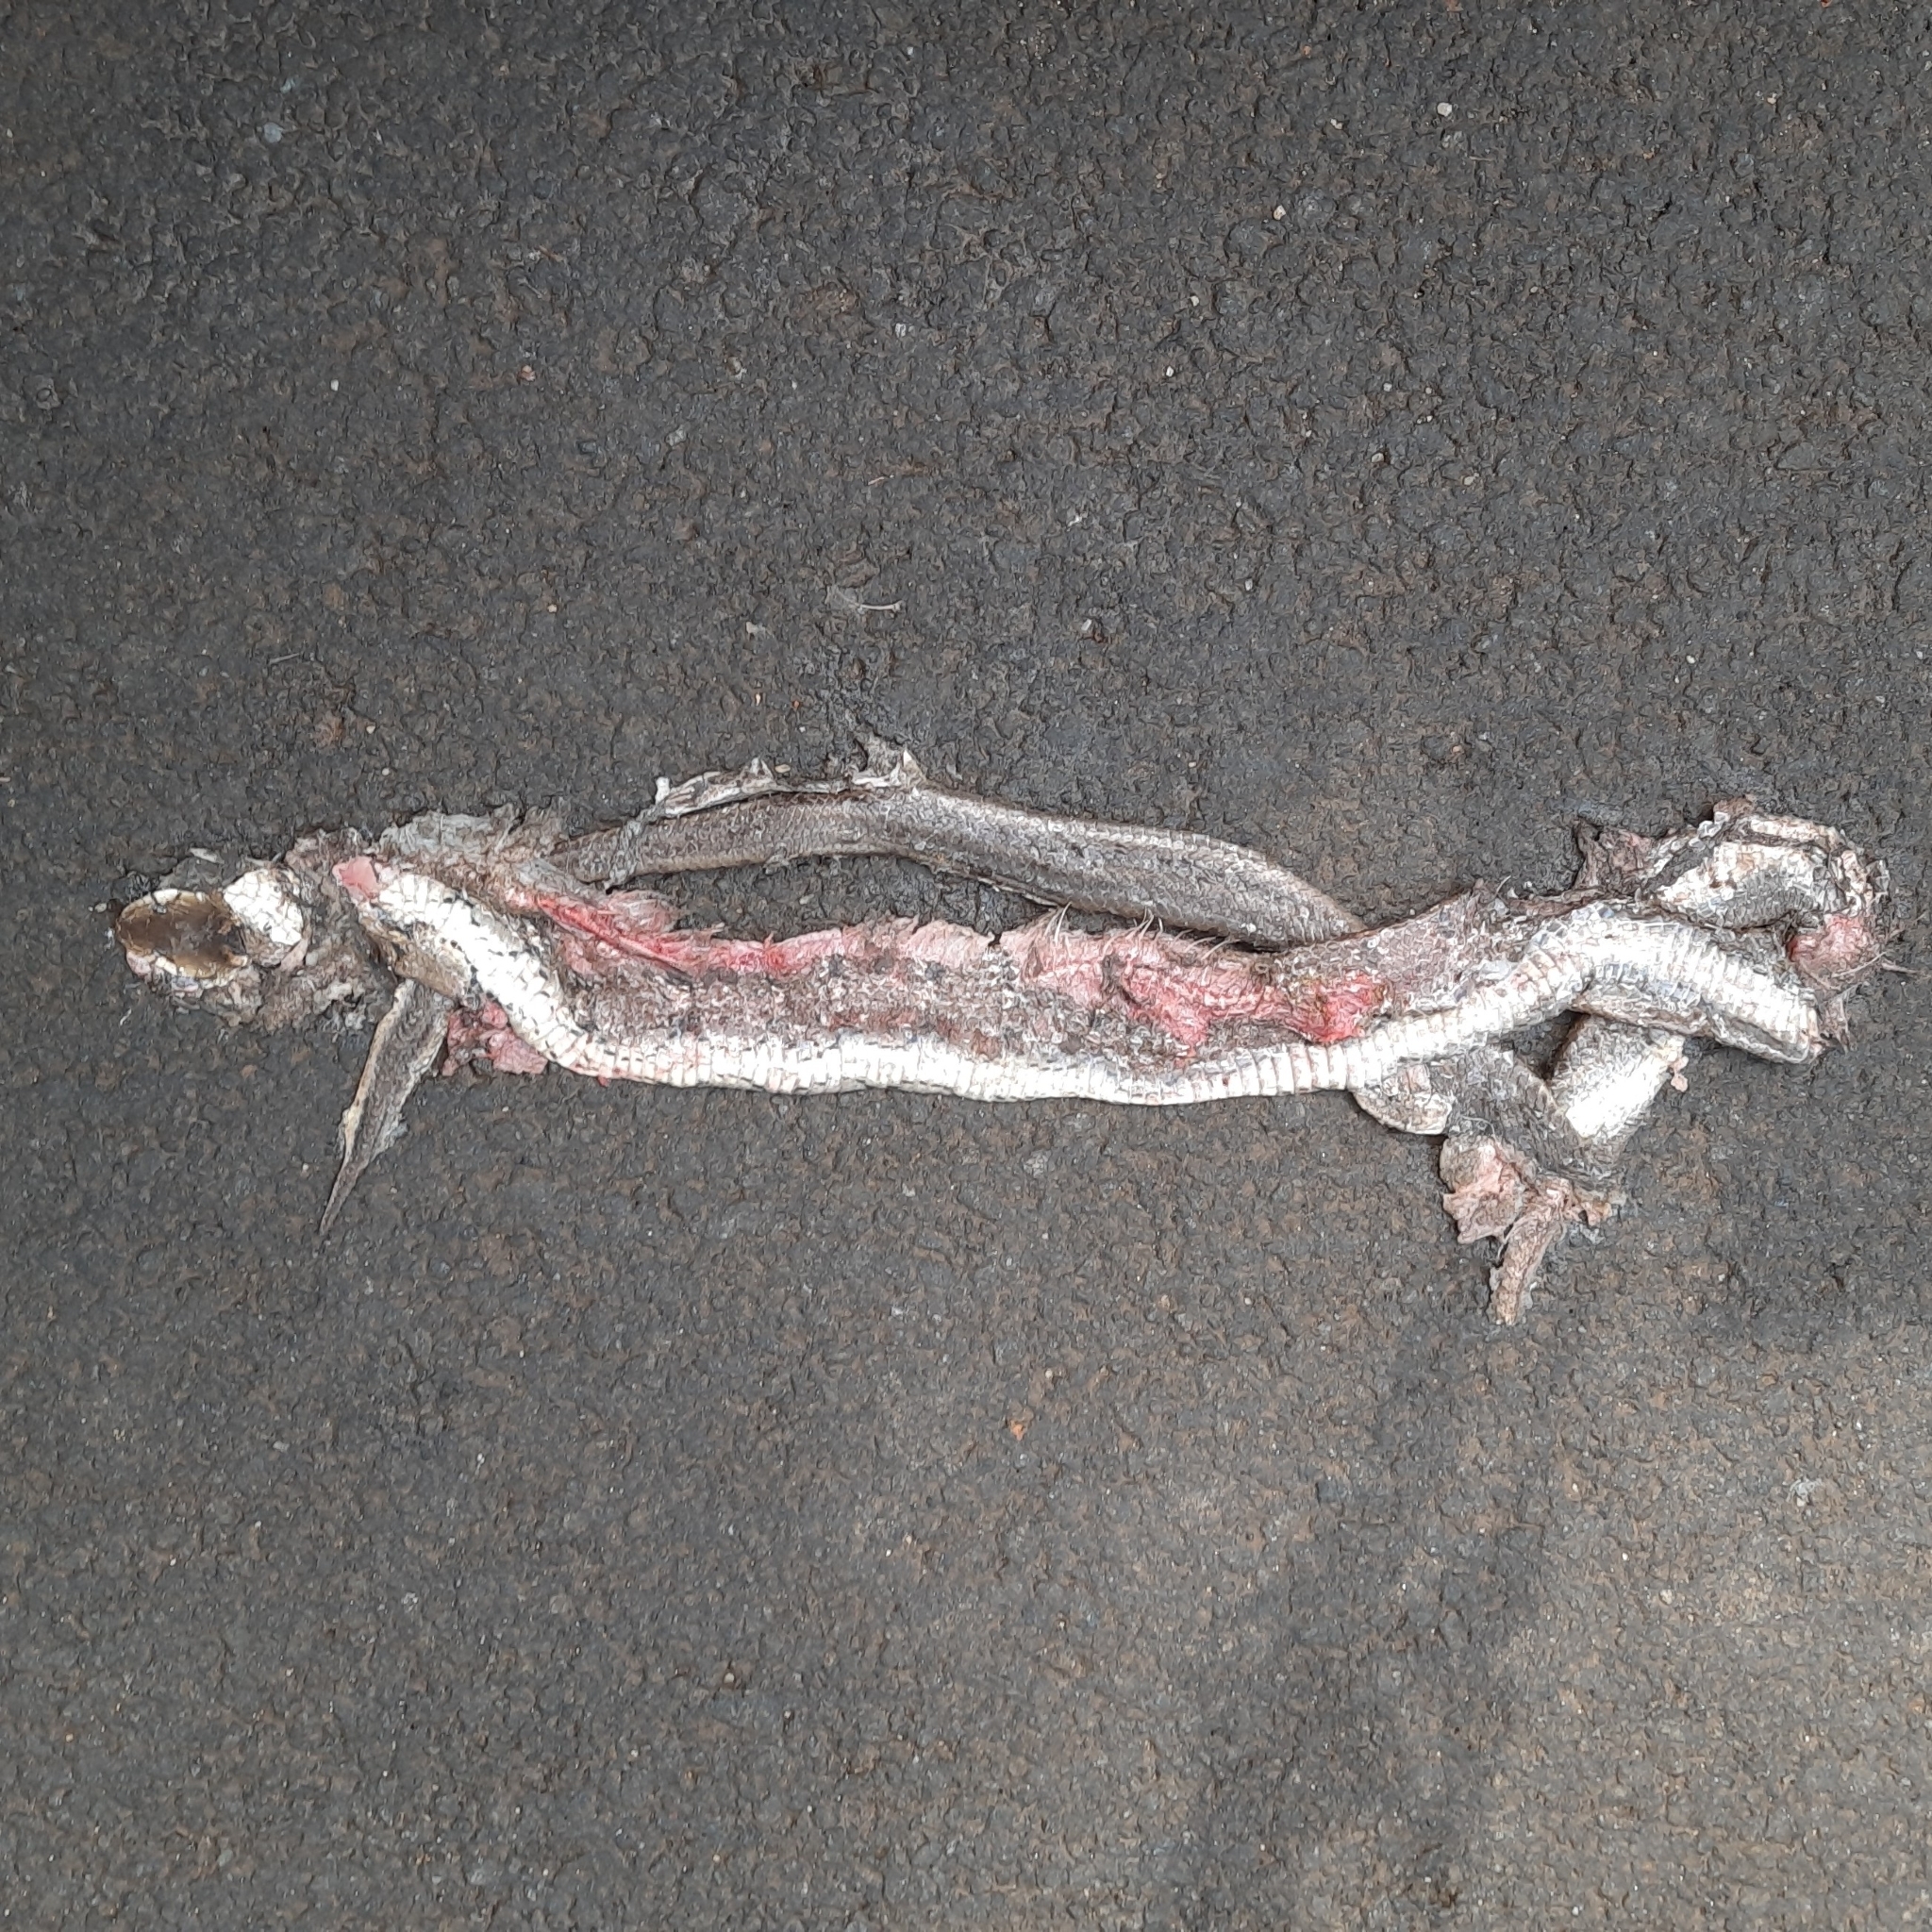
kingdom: Animalia
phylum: Chordata
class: Squamata
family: Colubridae
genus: Coelognathus
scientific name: Coelognathus helena
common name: Trinket snake
